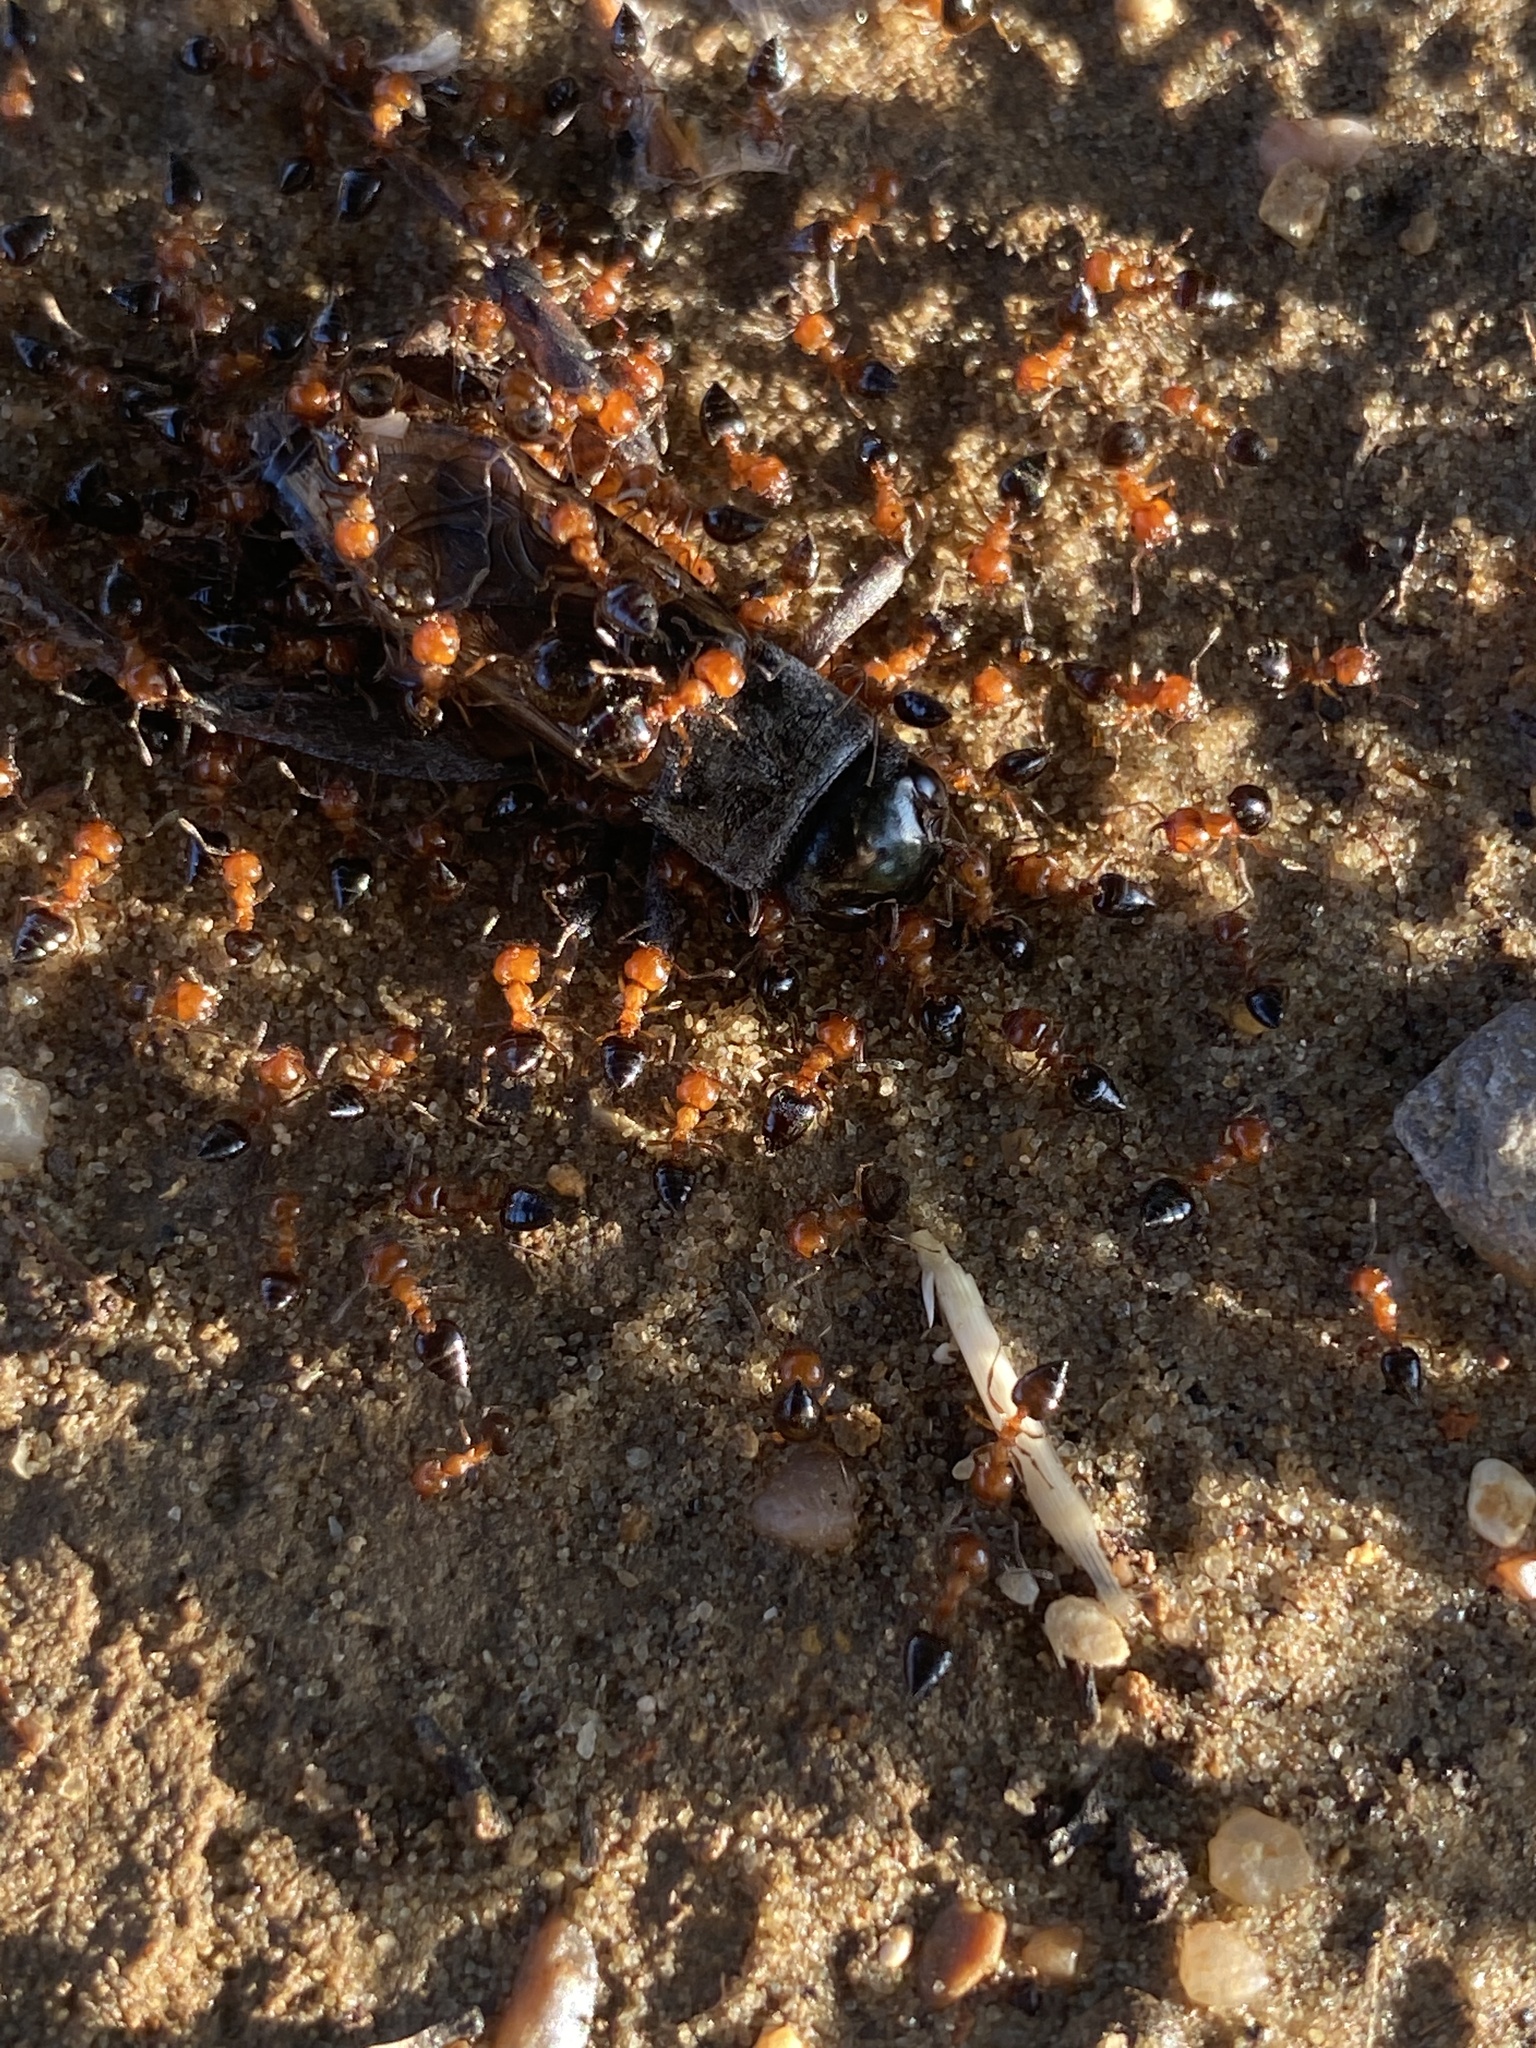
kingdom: Animalia
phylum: Arthropoda
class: Insecta
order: Hymenoptera
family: Formicidae
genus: Crematogaster
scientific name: Crematogaster laeviuscula
